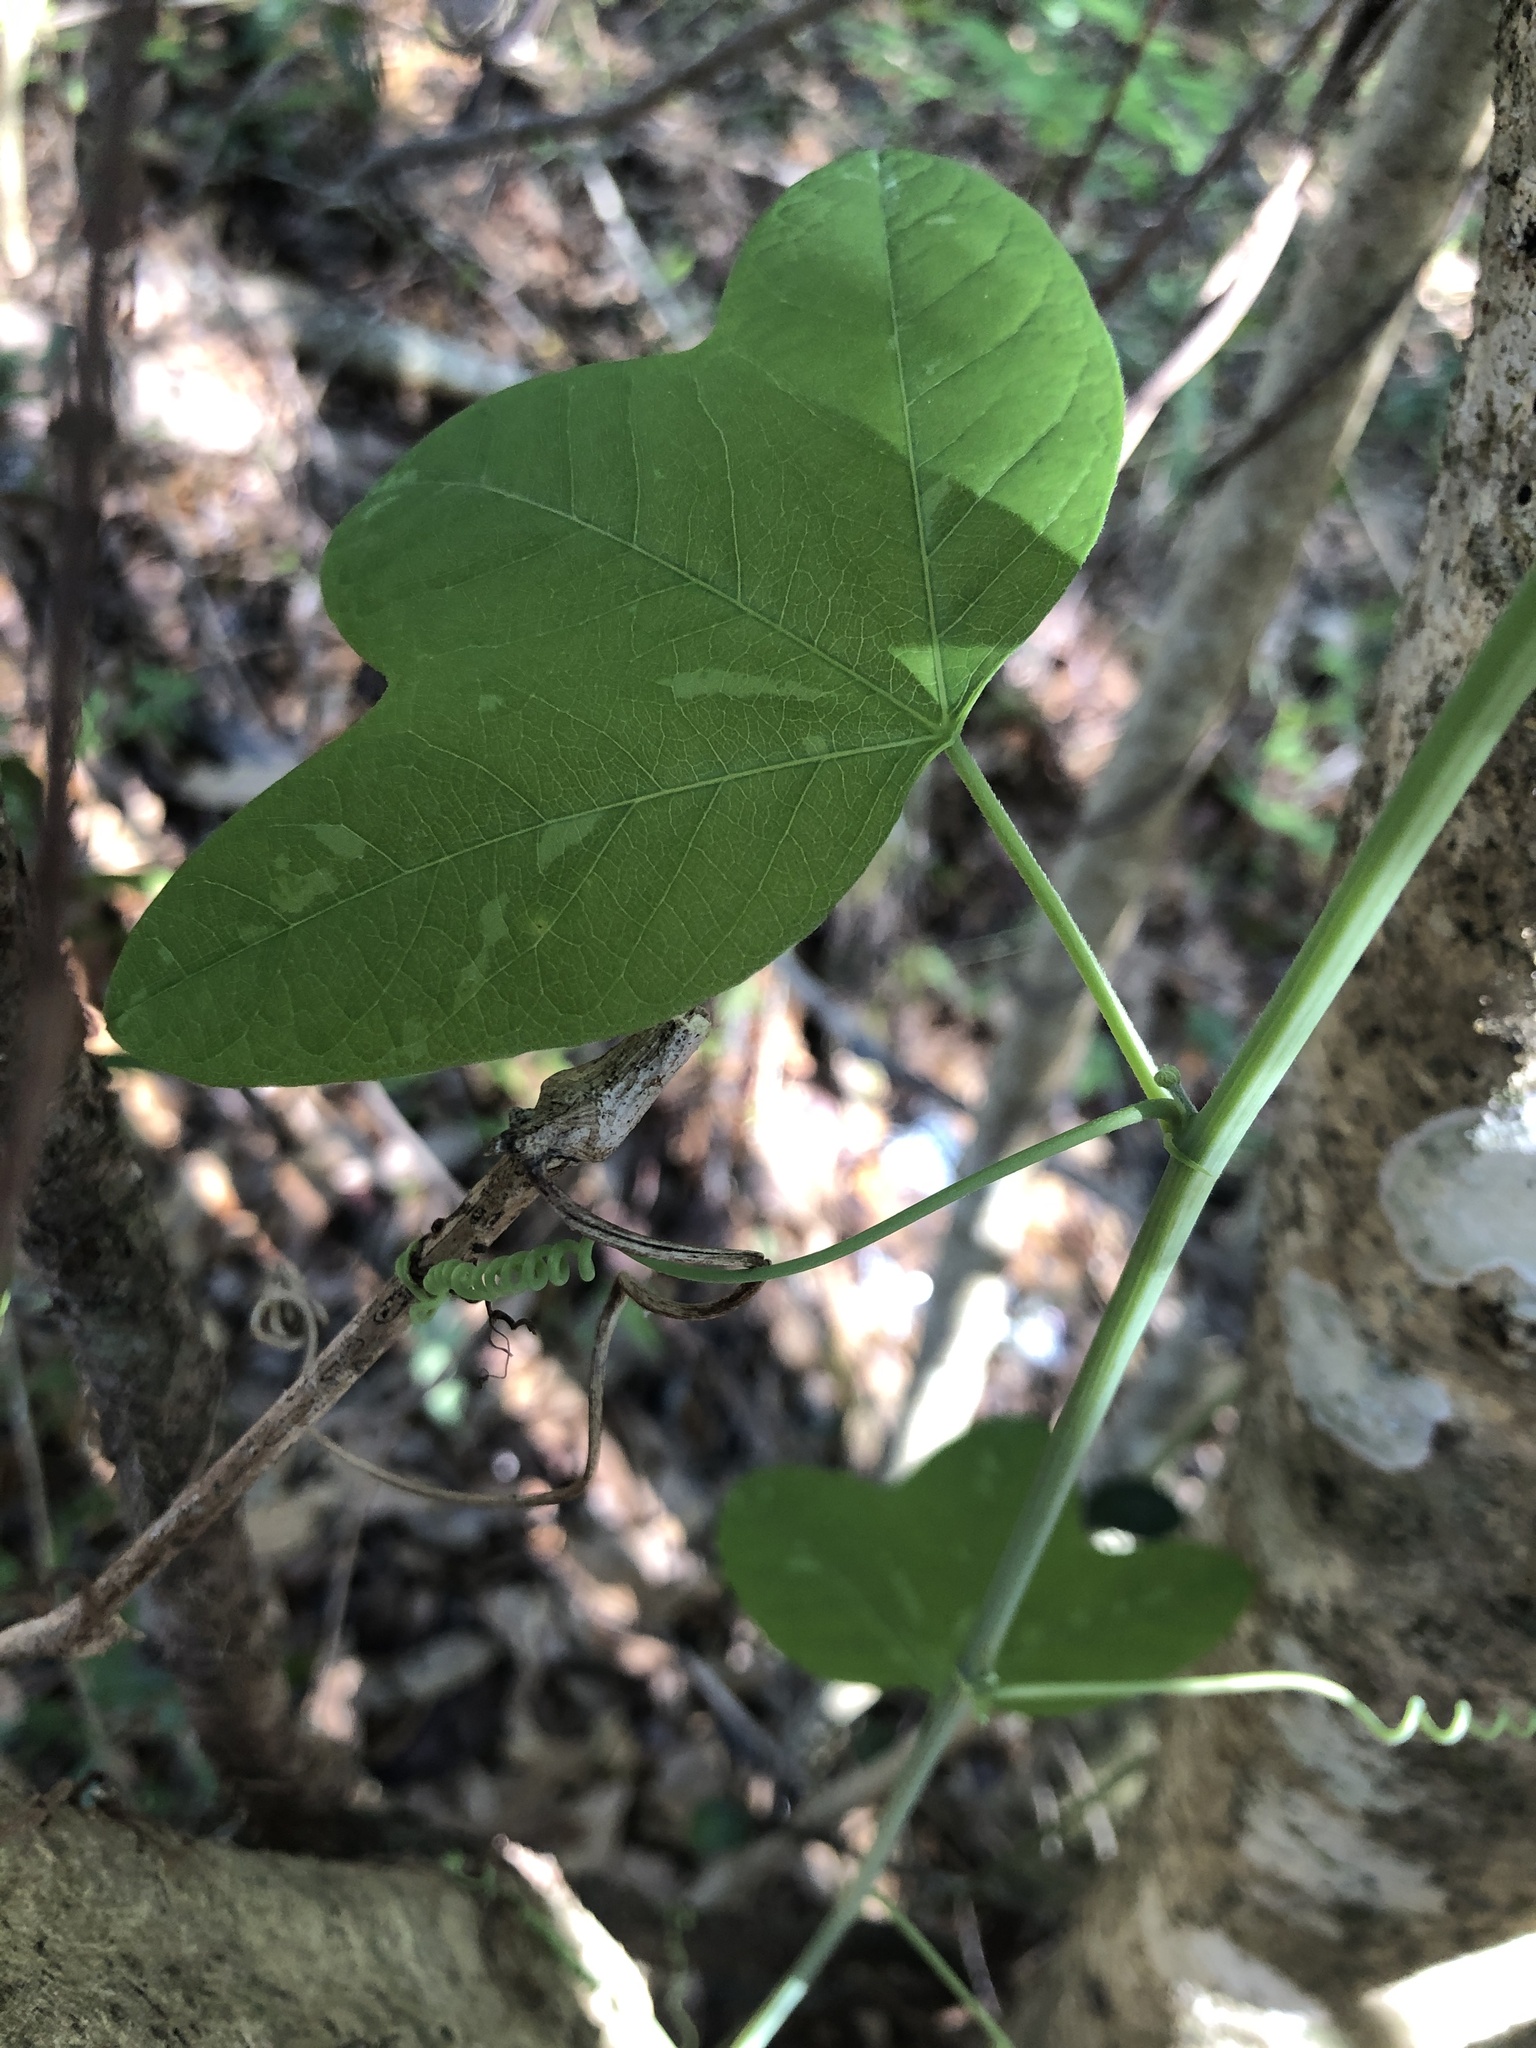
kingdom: Plantae
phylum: Tracheophyta
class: Magnoliopsida
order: Malpighiales
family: Passifloraceae
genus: Passiflora
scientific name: Passiflora lutea
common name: Yellow passionflower
